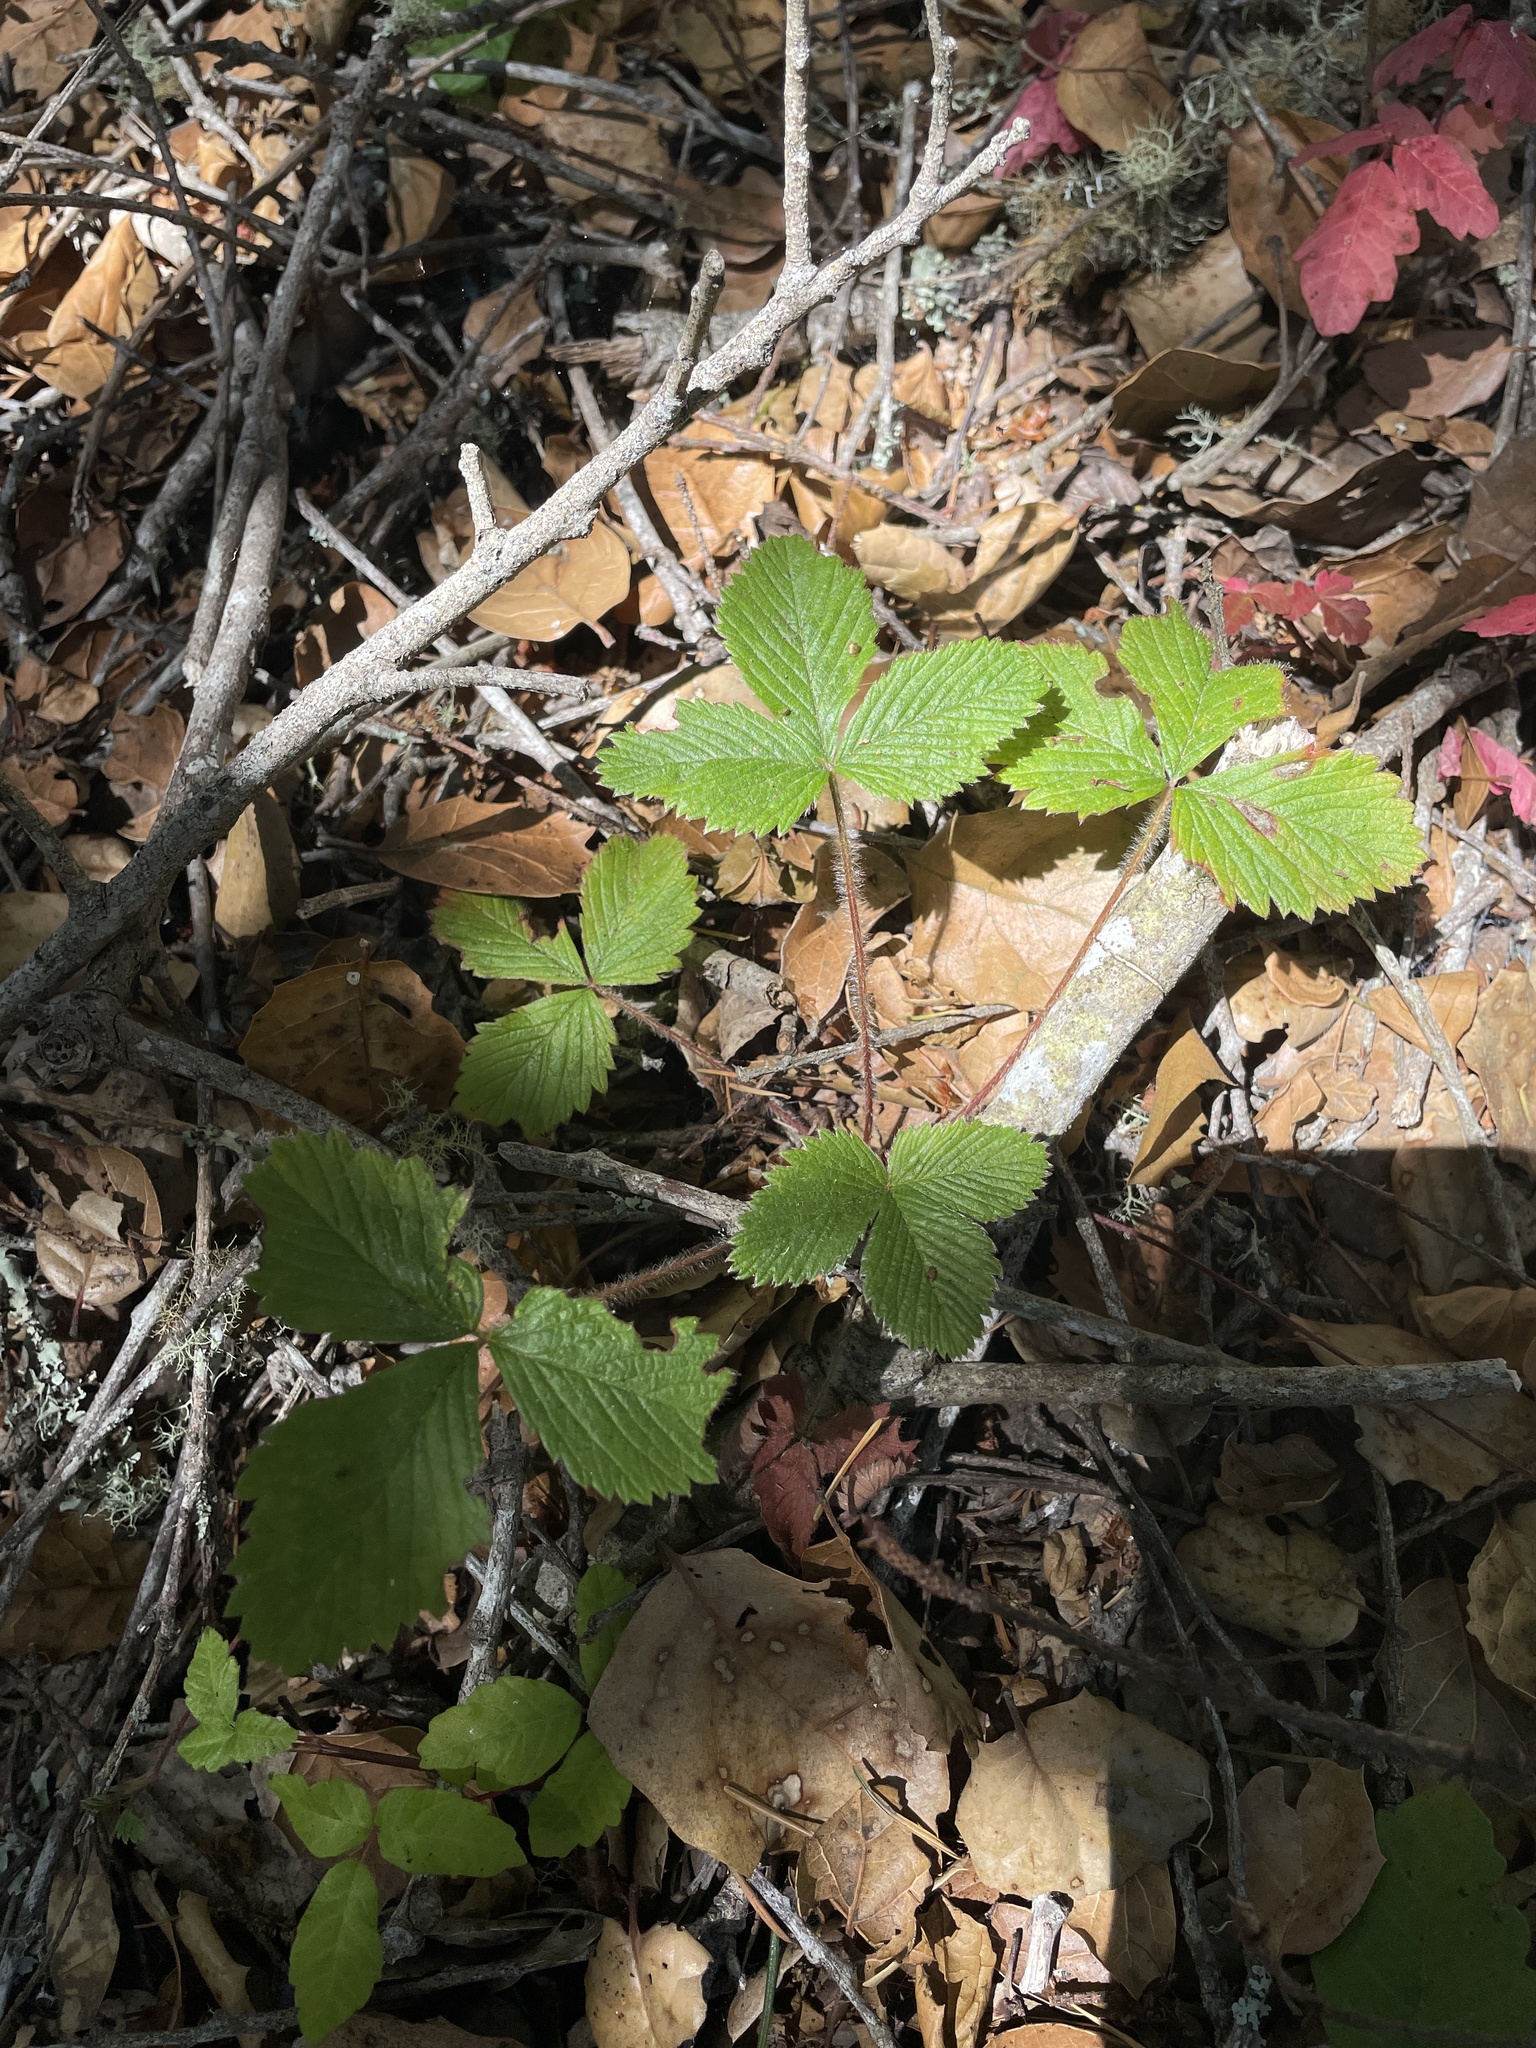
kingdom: Plantae
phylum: Tracheophyta
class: Magnoliopsida
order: Rosales
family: Rosaceae
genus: Fragaria
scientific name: Fragaria vesca
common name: Wild strawberry
